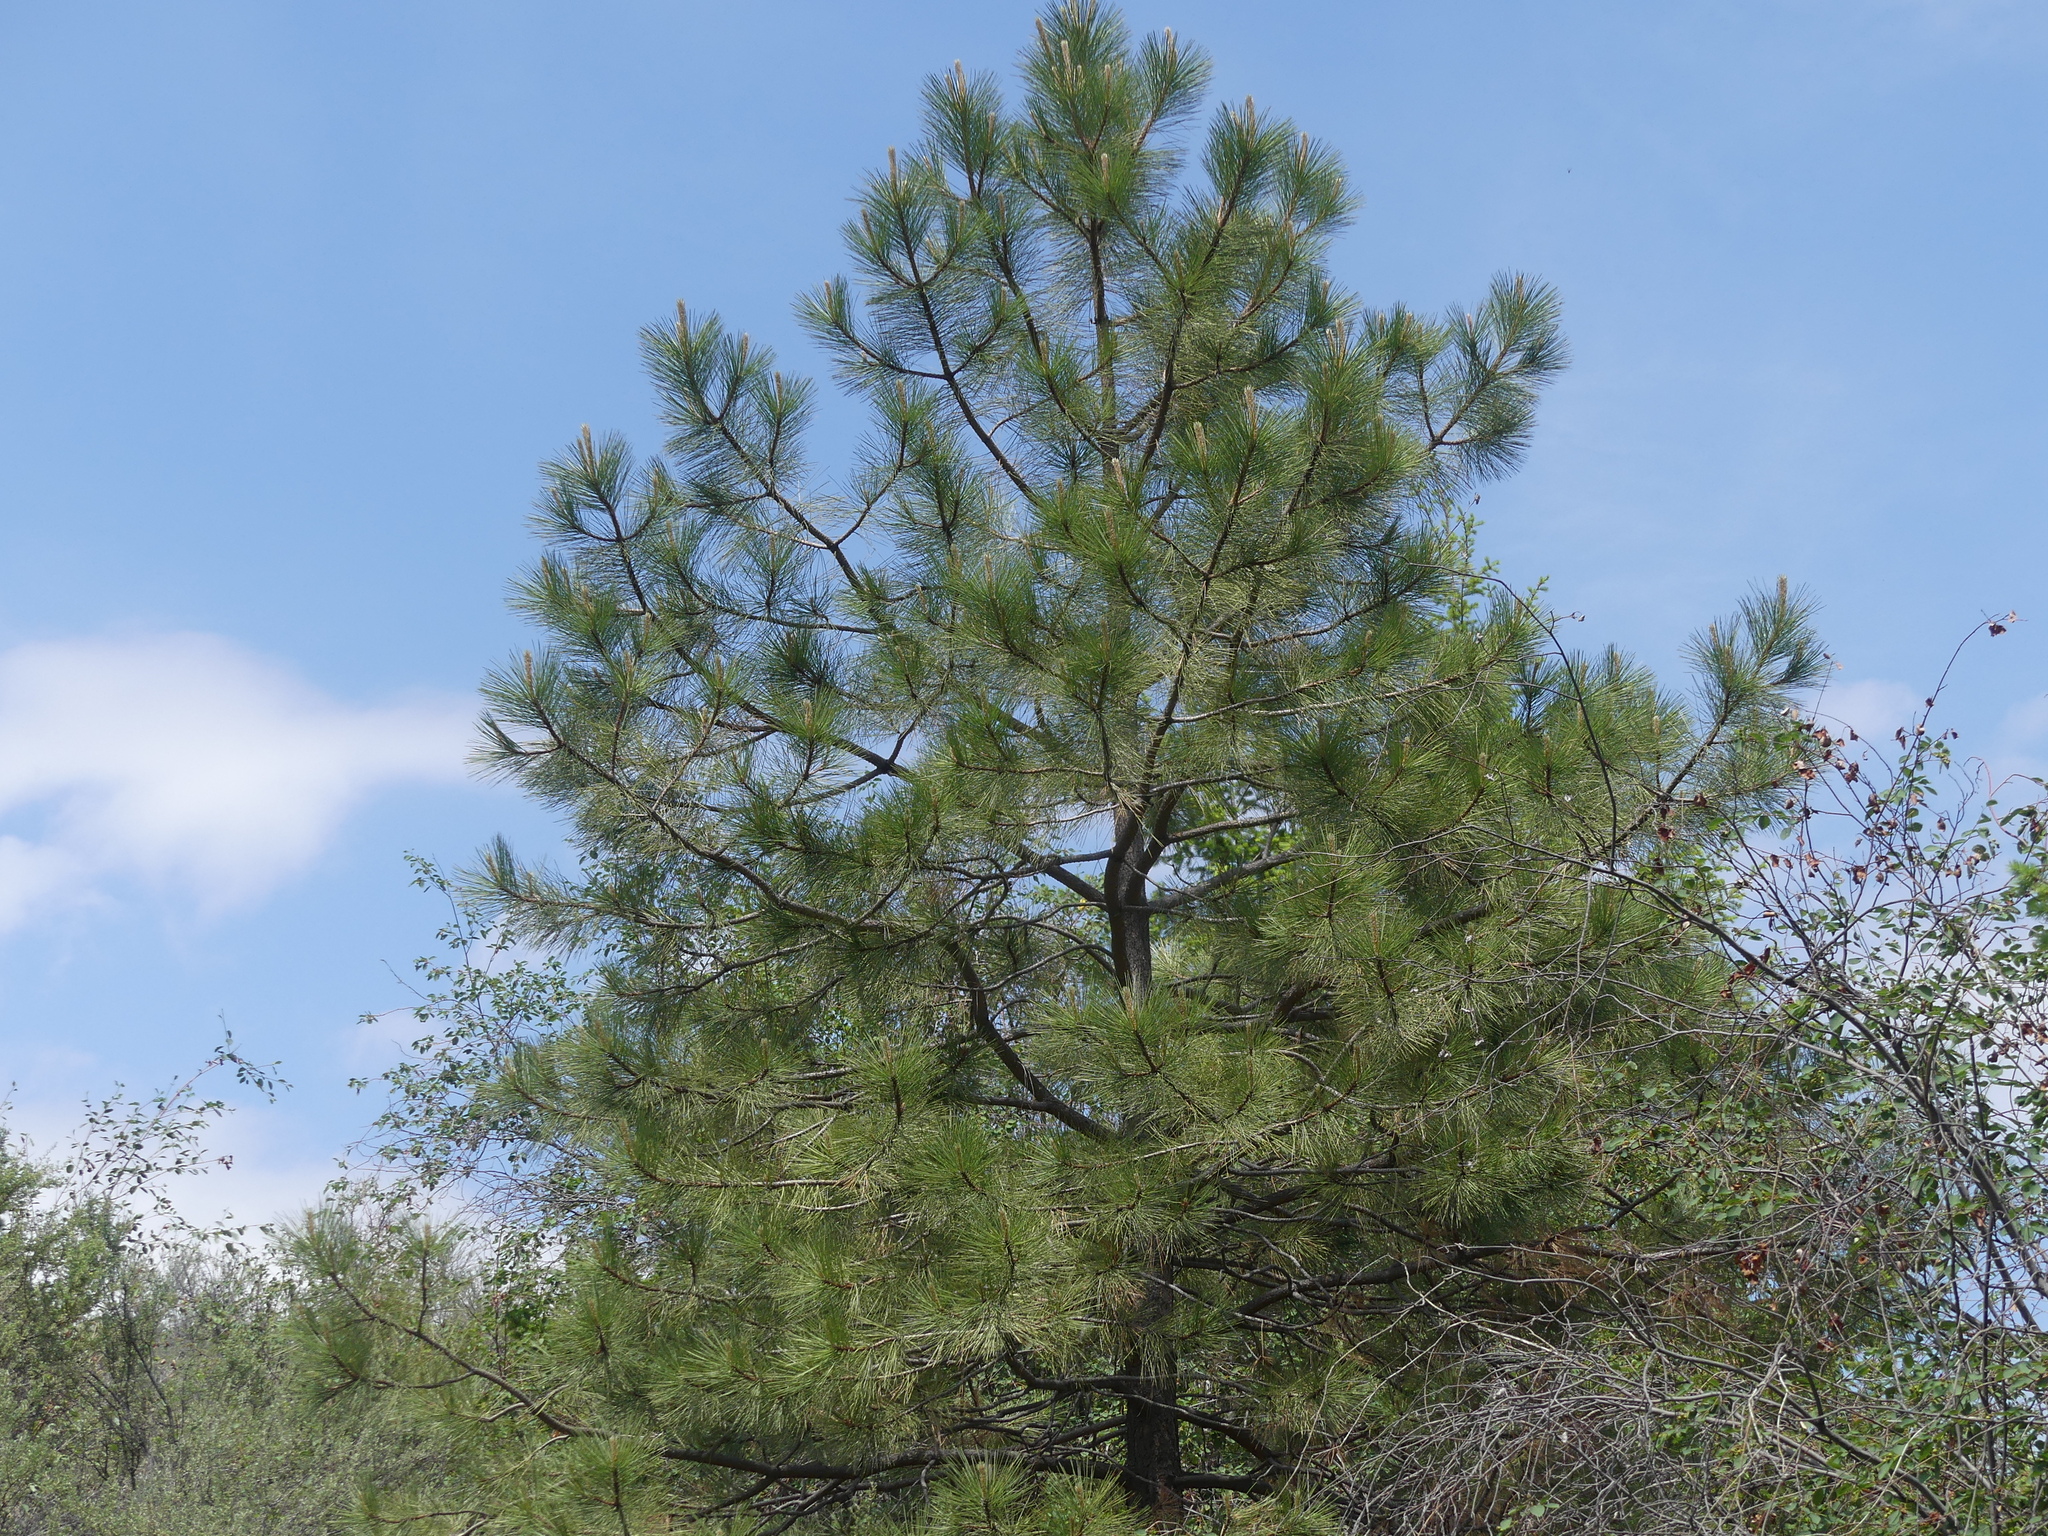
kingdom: Plantae
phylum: Tracheophyta
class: Pinopsida
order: Pinales
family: Pinaceae
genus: Pinus
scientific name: Pinus ponderosa
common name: Western yellow-pine
